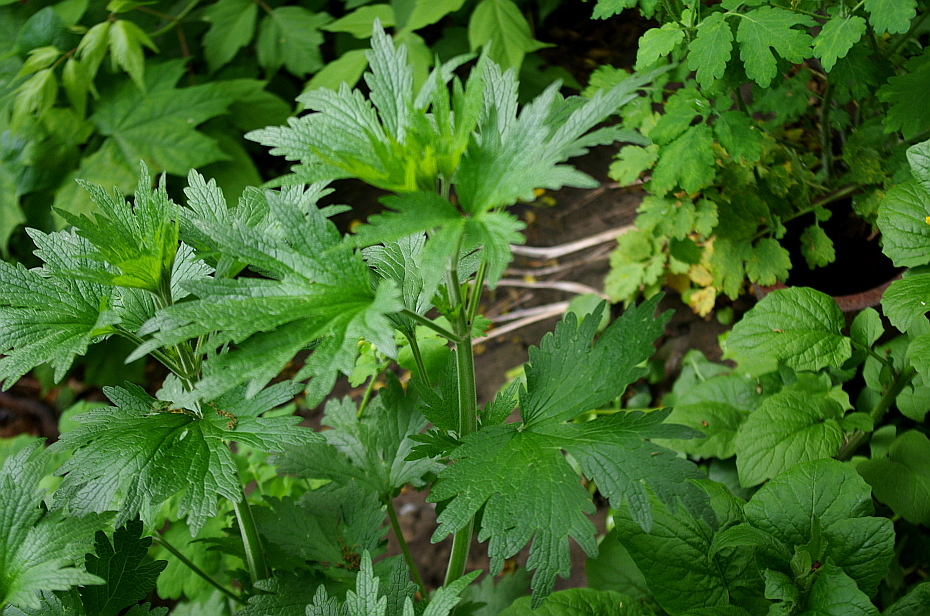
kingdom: Plantae
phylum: Tracheophyta
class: Magnoliopsida
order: Lamiales
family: Lamiaceae
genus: Leonurus
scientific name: Leonurus quinquelobatus
